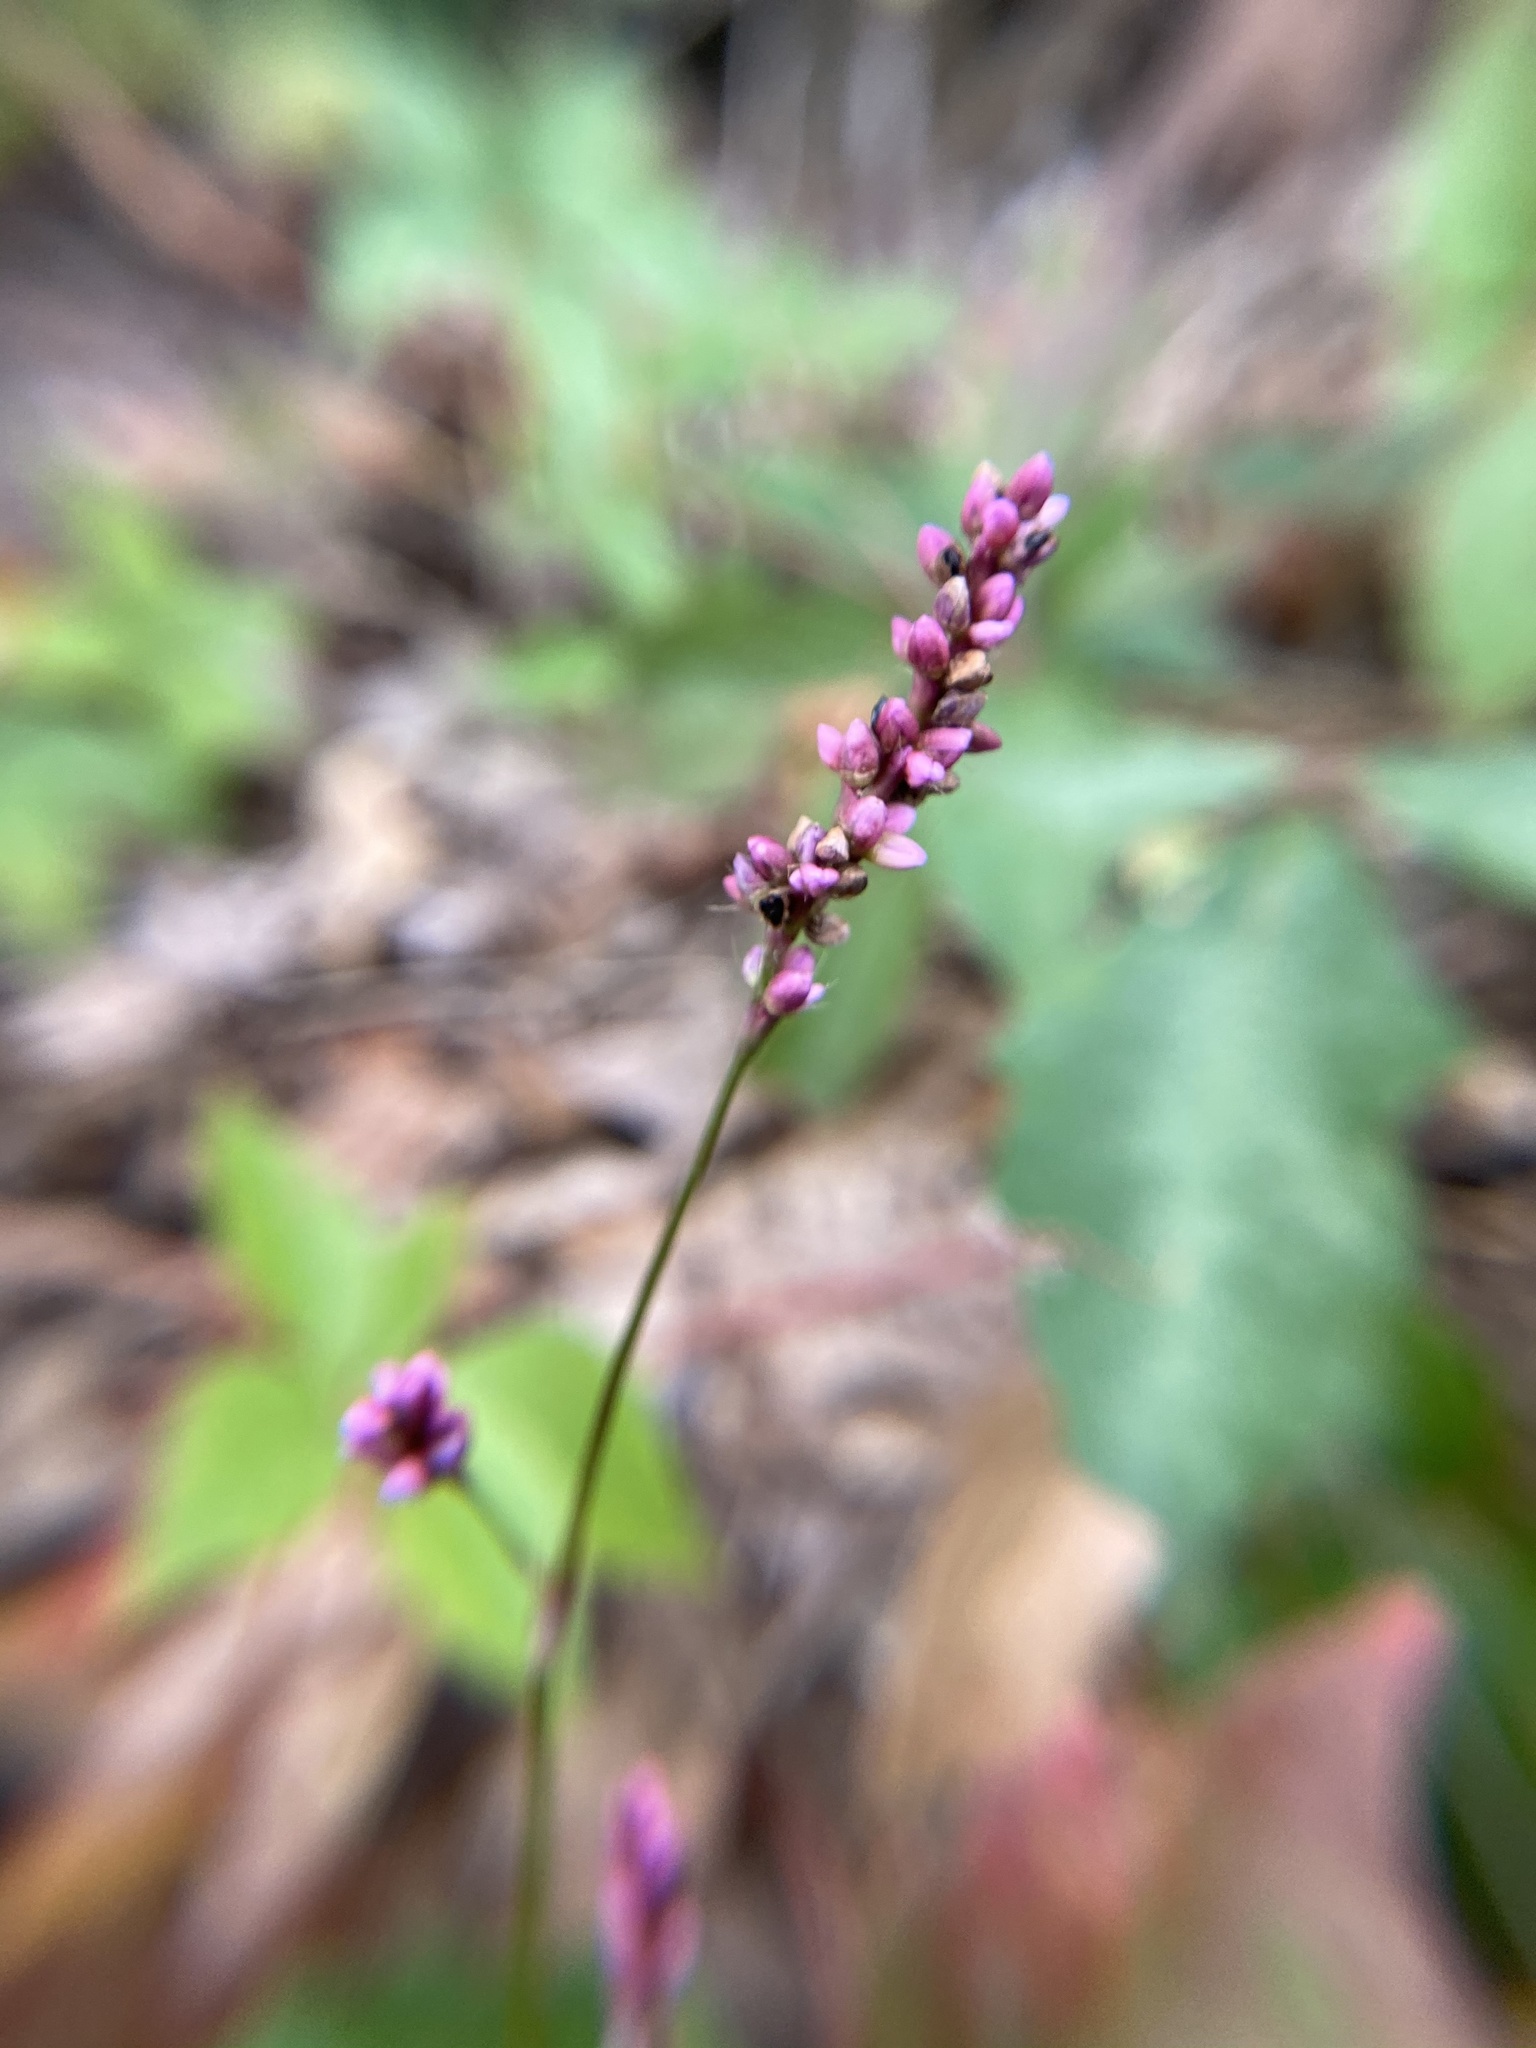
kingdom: Plantae
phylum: Tracheophyta
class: Magnoliopsida
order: Caryophyllales
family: Polygonaceae
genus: Persicaria
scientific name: Persicaria longiseta
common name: Bristly lady's-thumb
